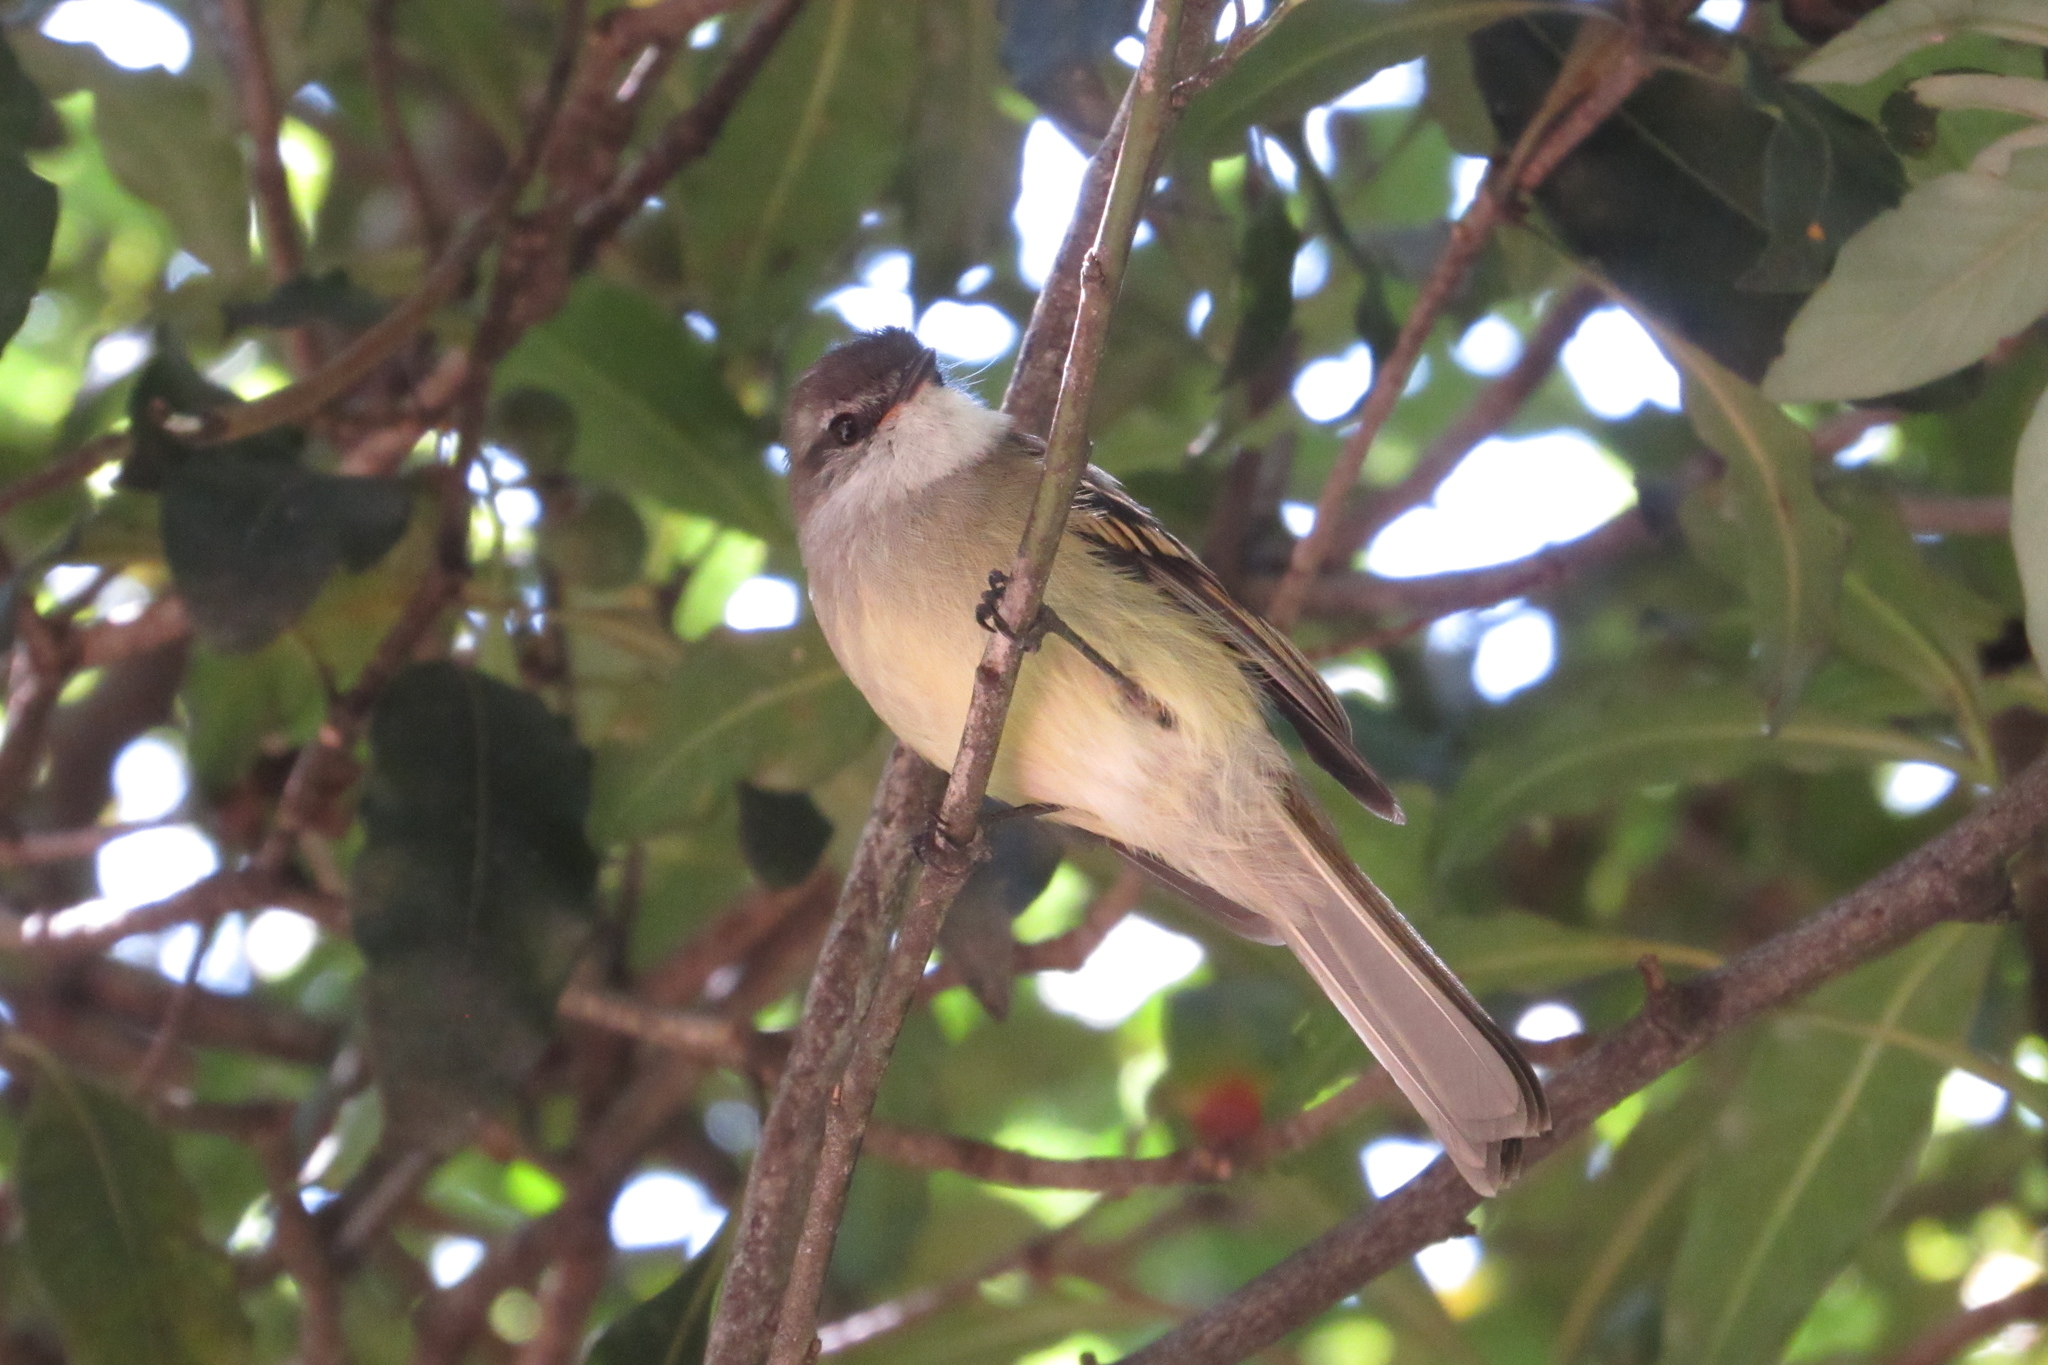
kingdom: Animalia
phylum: Chordata
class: Aves
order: Passeriformes
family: Tyrannidae
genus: Mecocerculus
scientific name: Mecocerculus leucophrys
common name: White-throated tyrannulet
